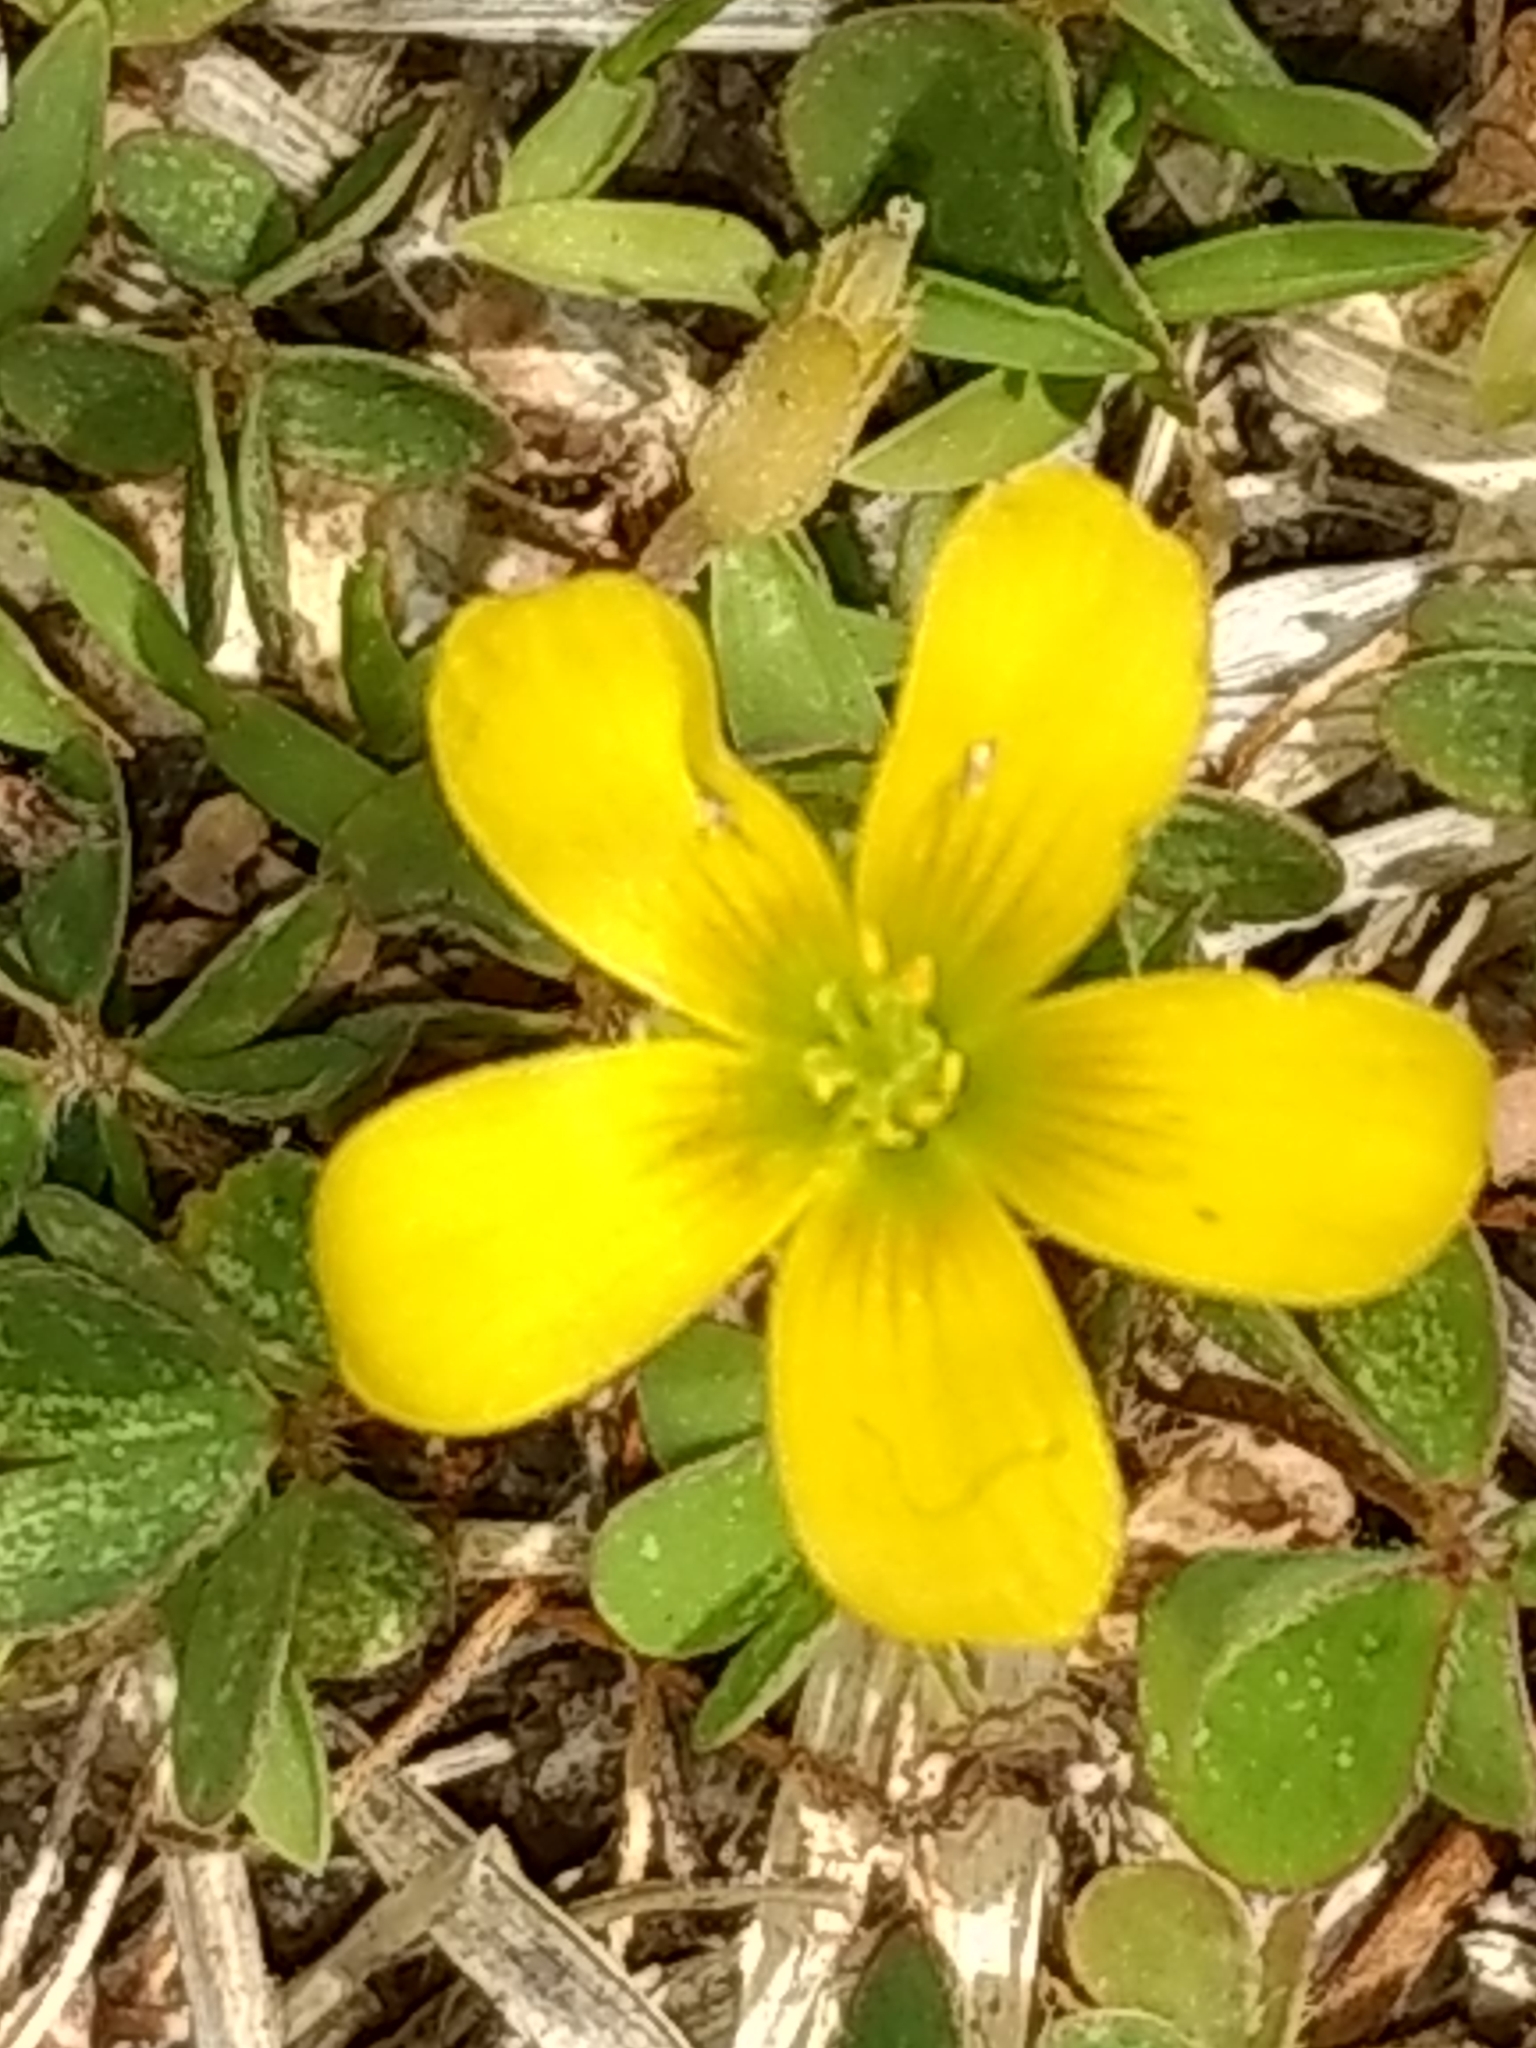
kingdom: Plantae
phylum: Tracheophyta
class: Magnoliopsida
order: Oxalidales
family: Oxalidaceae
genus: Oxalis
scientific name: Oxalis corniculata
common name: Procumbent yellow-sorrel
